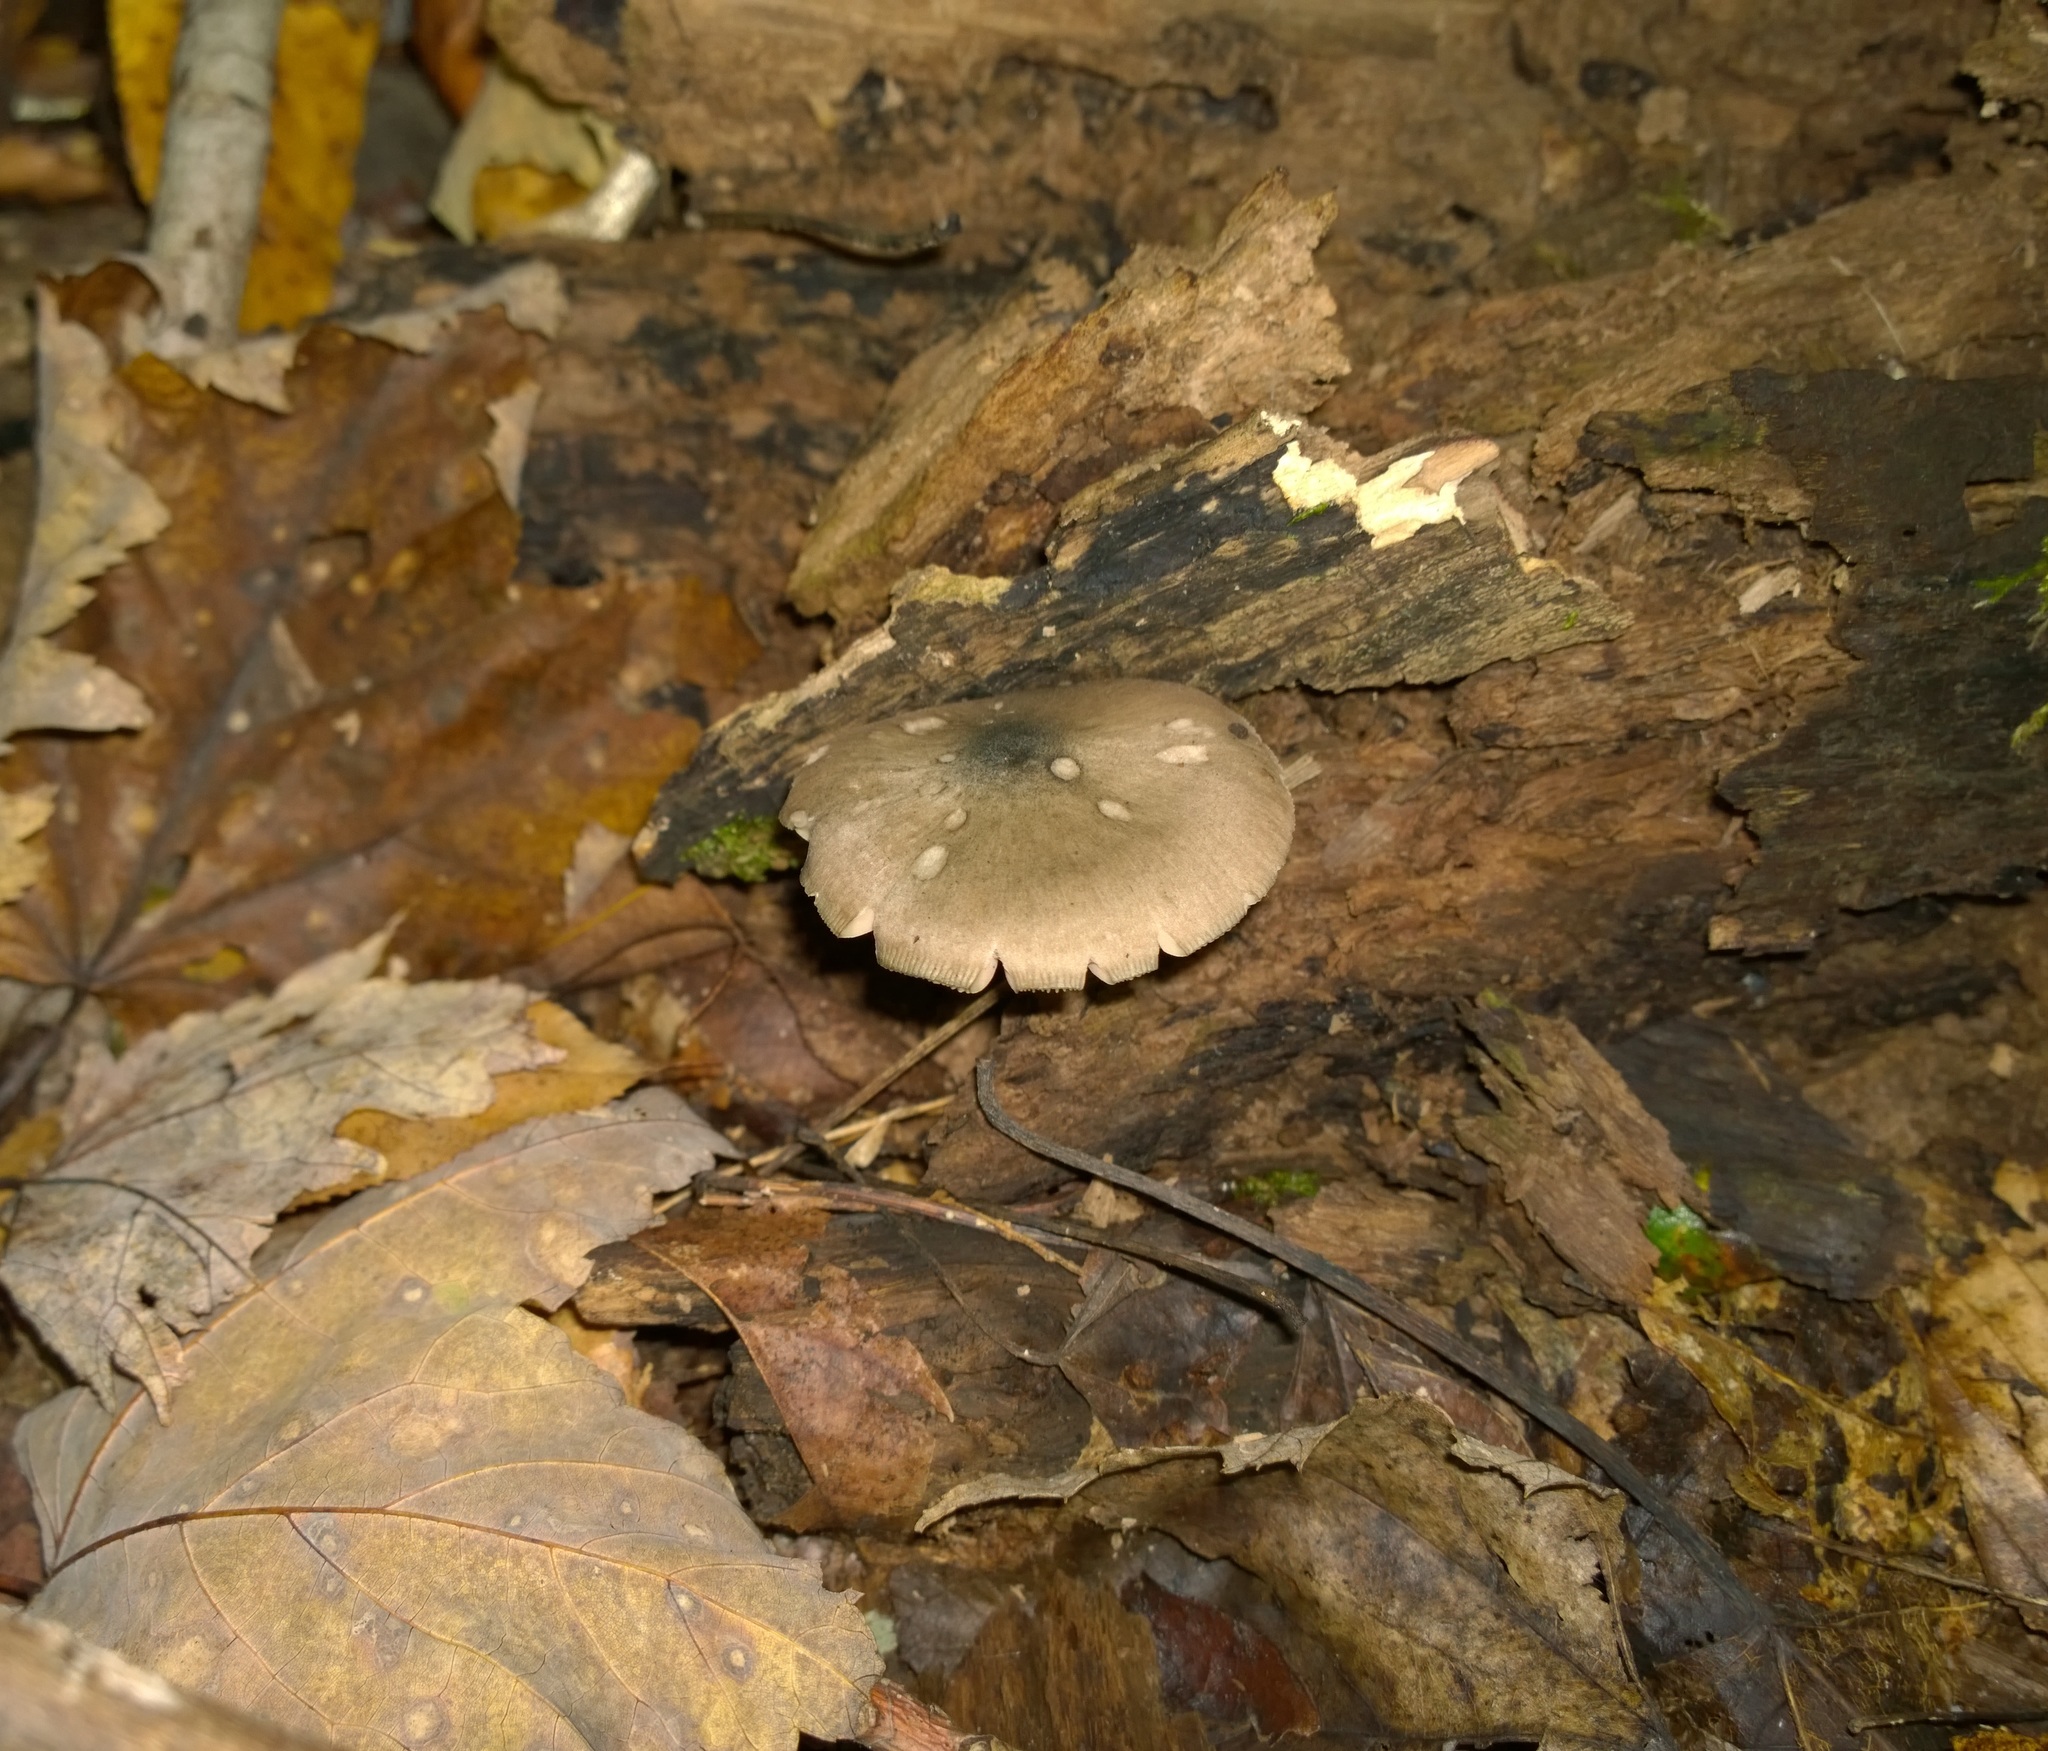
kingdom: Fungi
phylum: Basidiomycota
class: Agaricomycetes
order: Agaricales
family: Pluteaceae
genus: Pluteus
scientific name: Pluteus americanus
